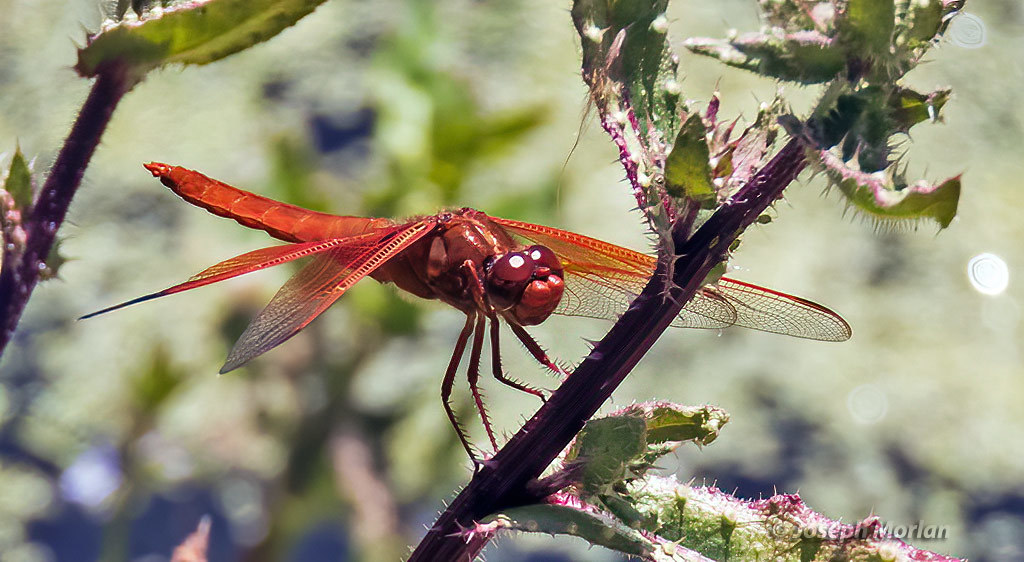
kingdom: Animalia
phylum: Arthropoda
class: Insecta
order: Odonata
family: Libellulidae
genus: Libellula
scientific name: Libellula saturata
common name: Flame skimmer
